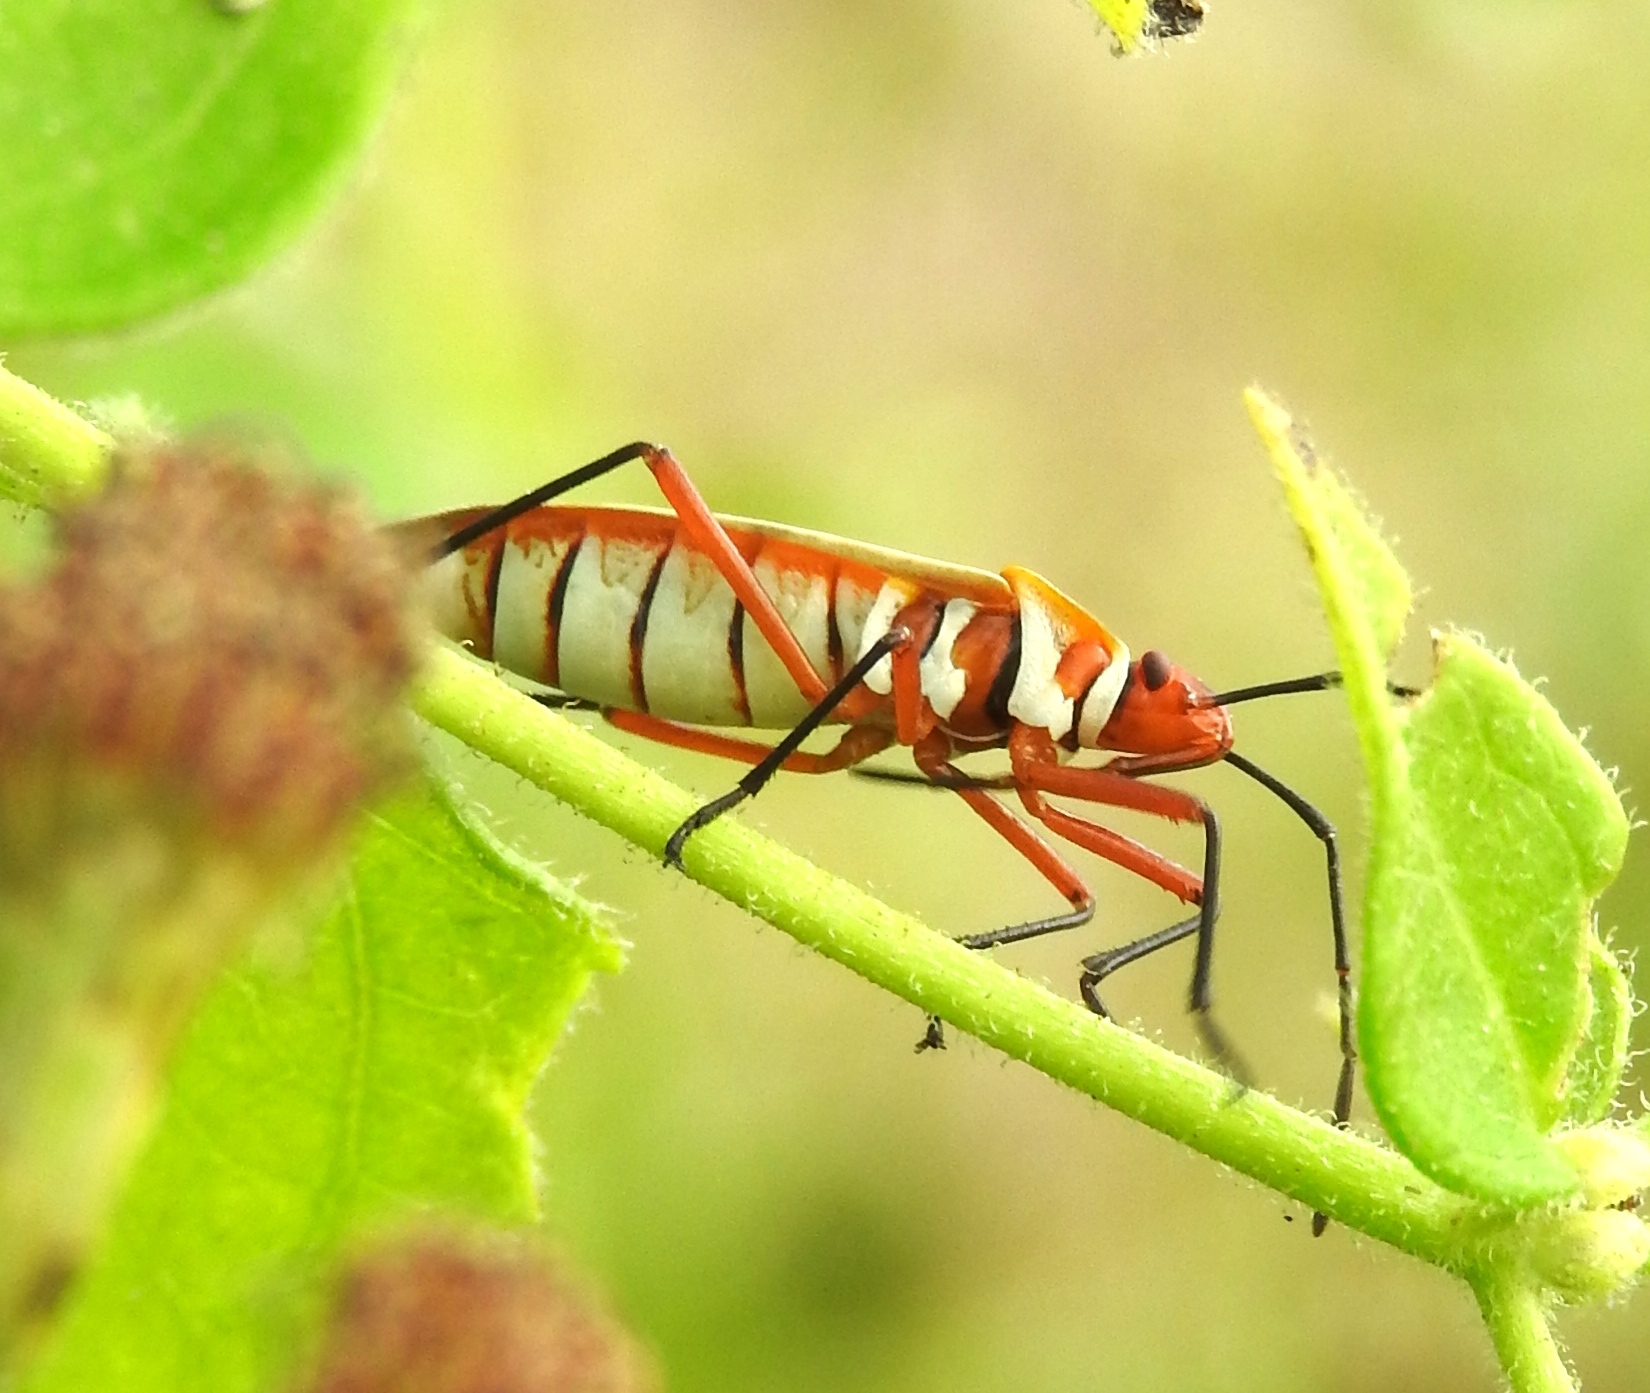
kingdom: Animalia
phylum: Arthropoda
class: Insecta
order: Hemiptera
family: Pyrrhocoridae
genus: Dysdercus
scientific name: Dysdercus obliquus
